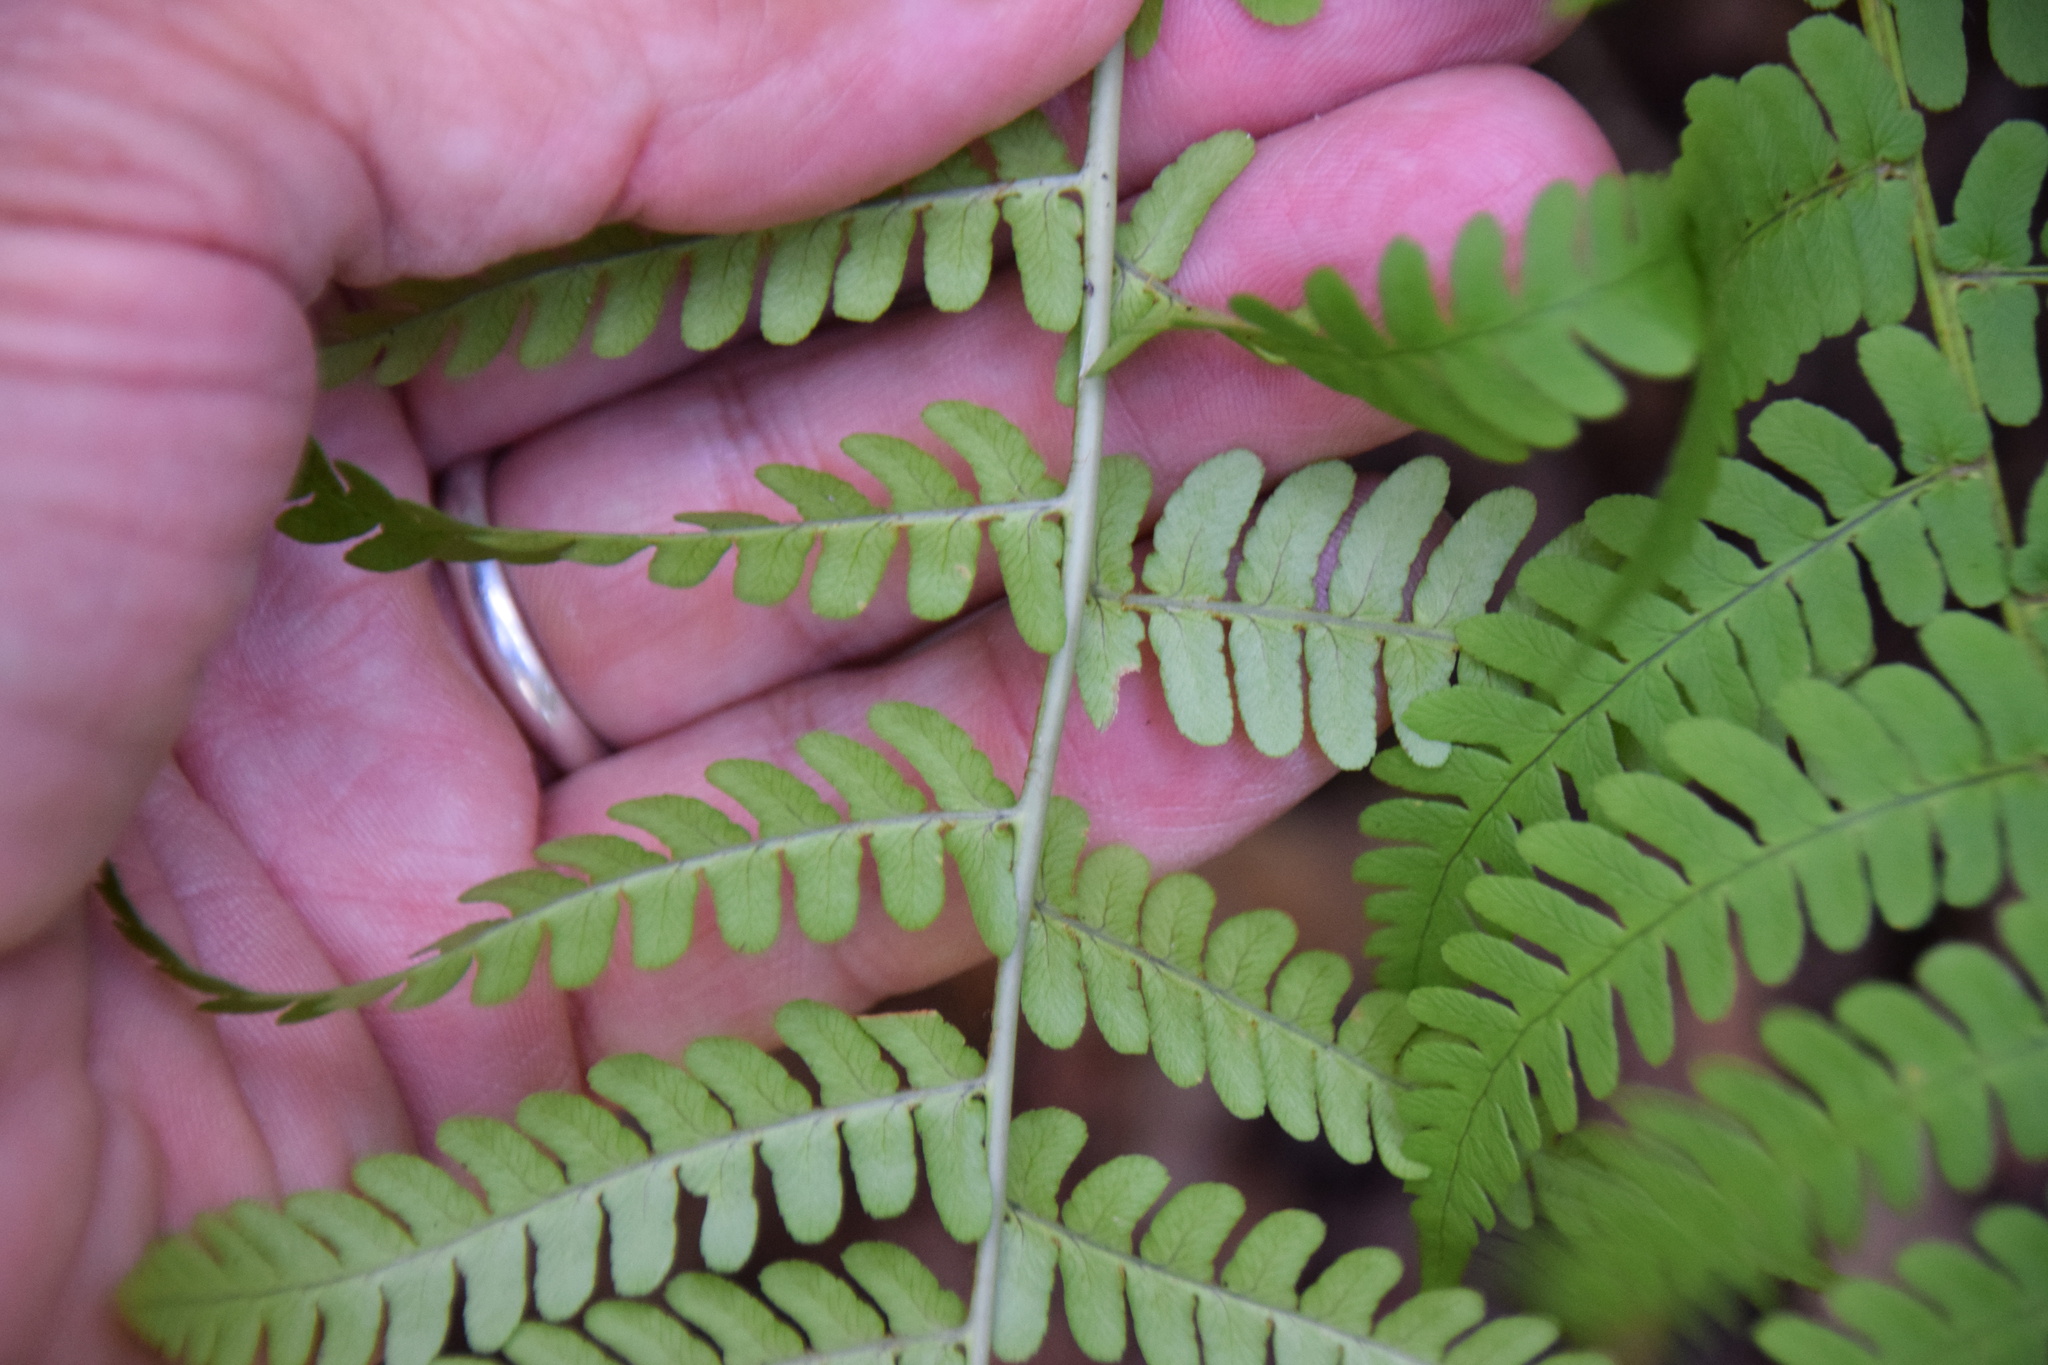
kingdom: Plantae
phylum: Tracheophyta
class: Polypodiopsida
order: Polypodiales
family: Dryopteridaceae
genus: Dryopteris
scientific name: Dryopteris marginalis
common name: Marginal wood fern
